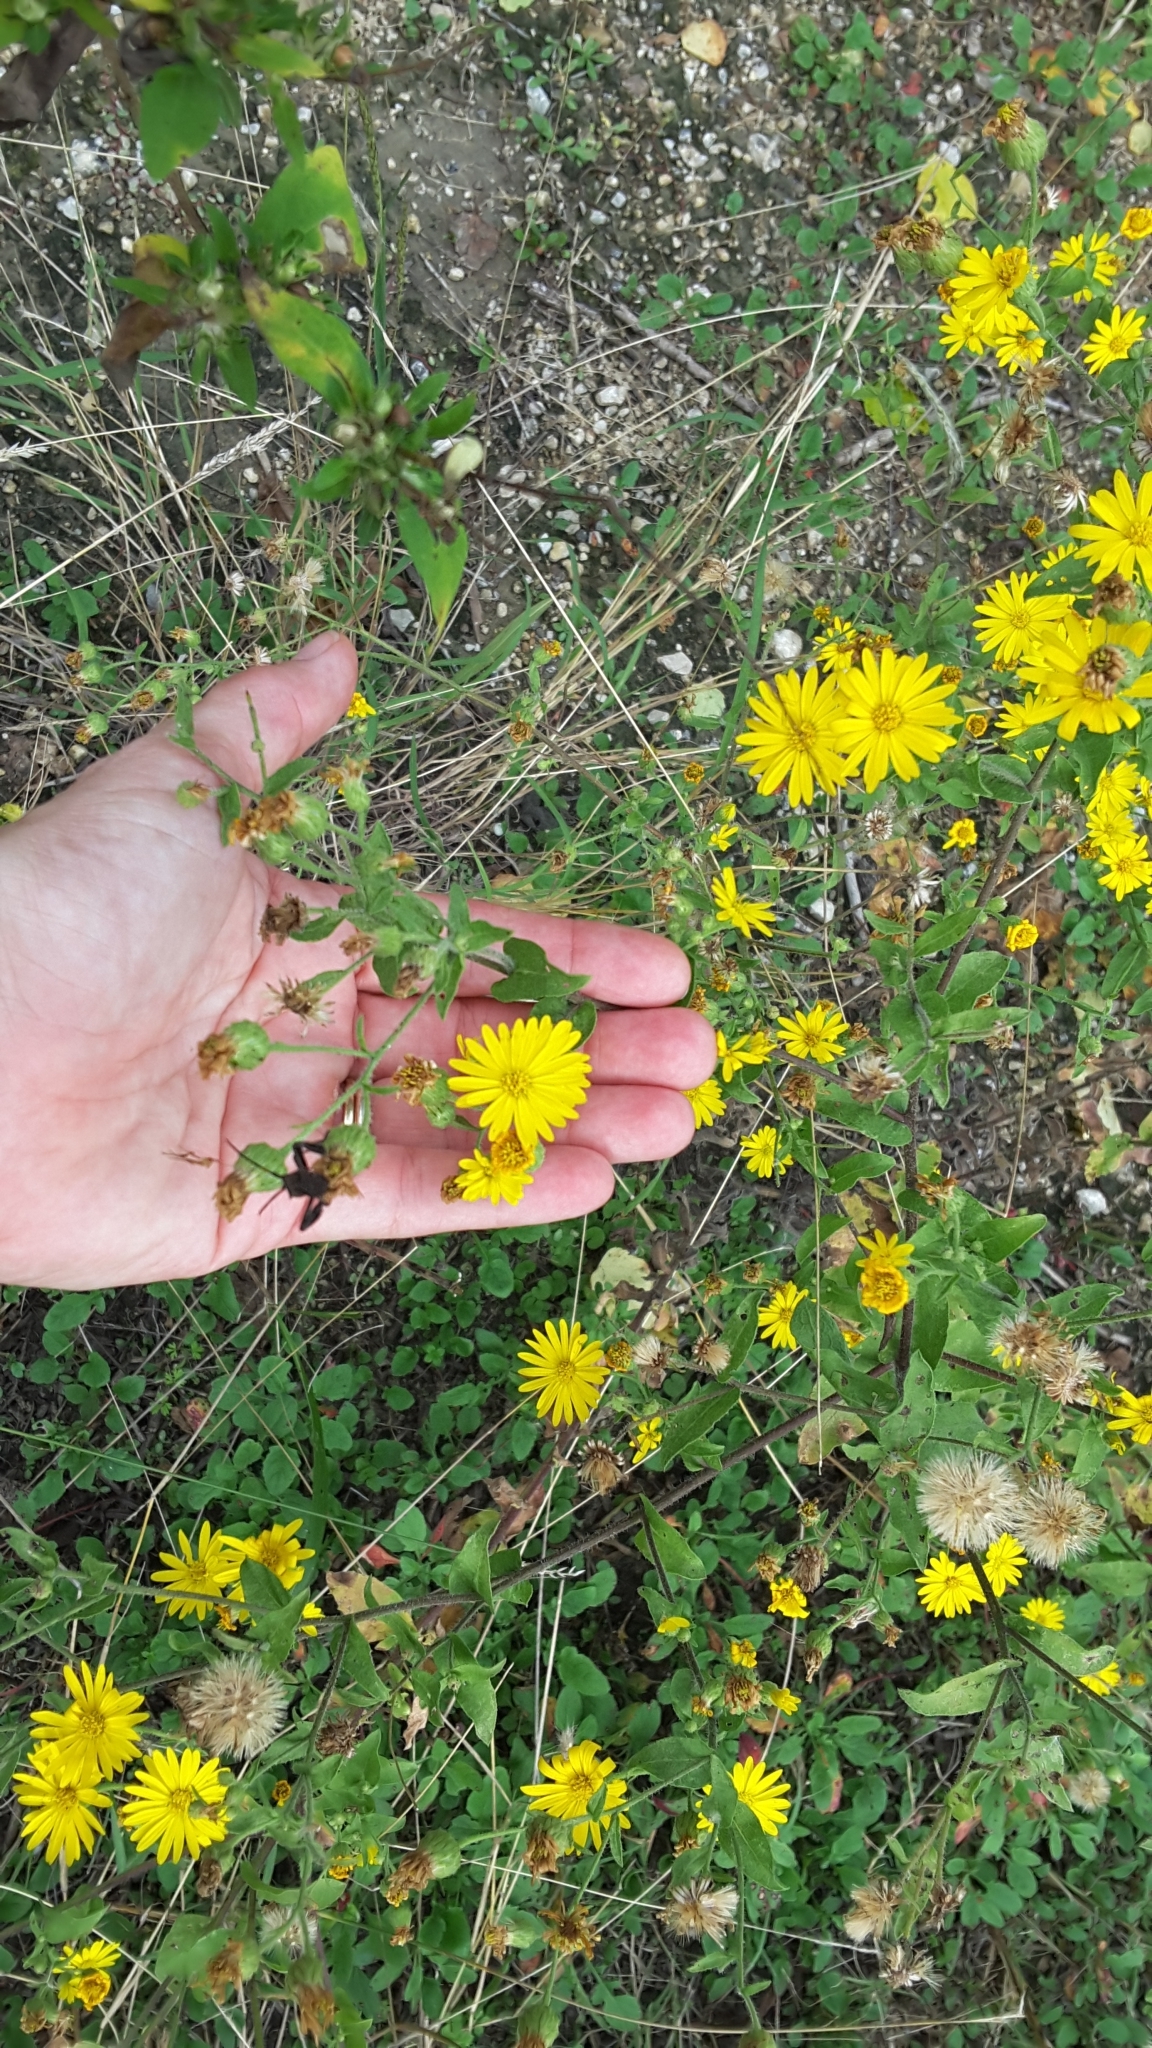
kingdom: Plantae
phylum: Tracheophyta
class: Magnoliopsida
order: Asterales
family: Asteraceae
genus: Heterotheca
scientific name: Heterotheca subaxillaris
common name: Camphorweed
